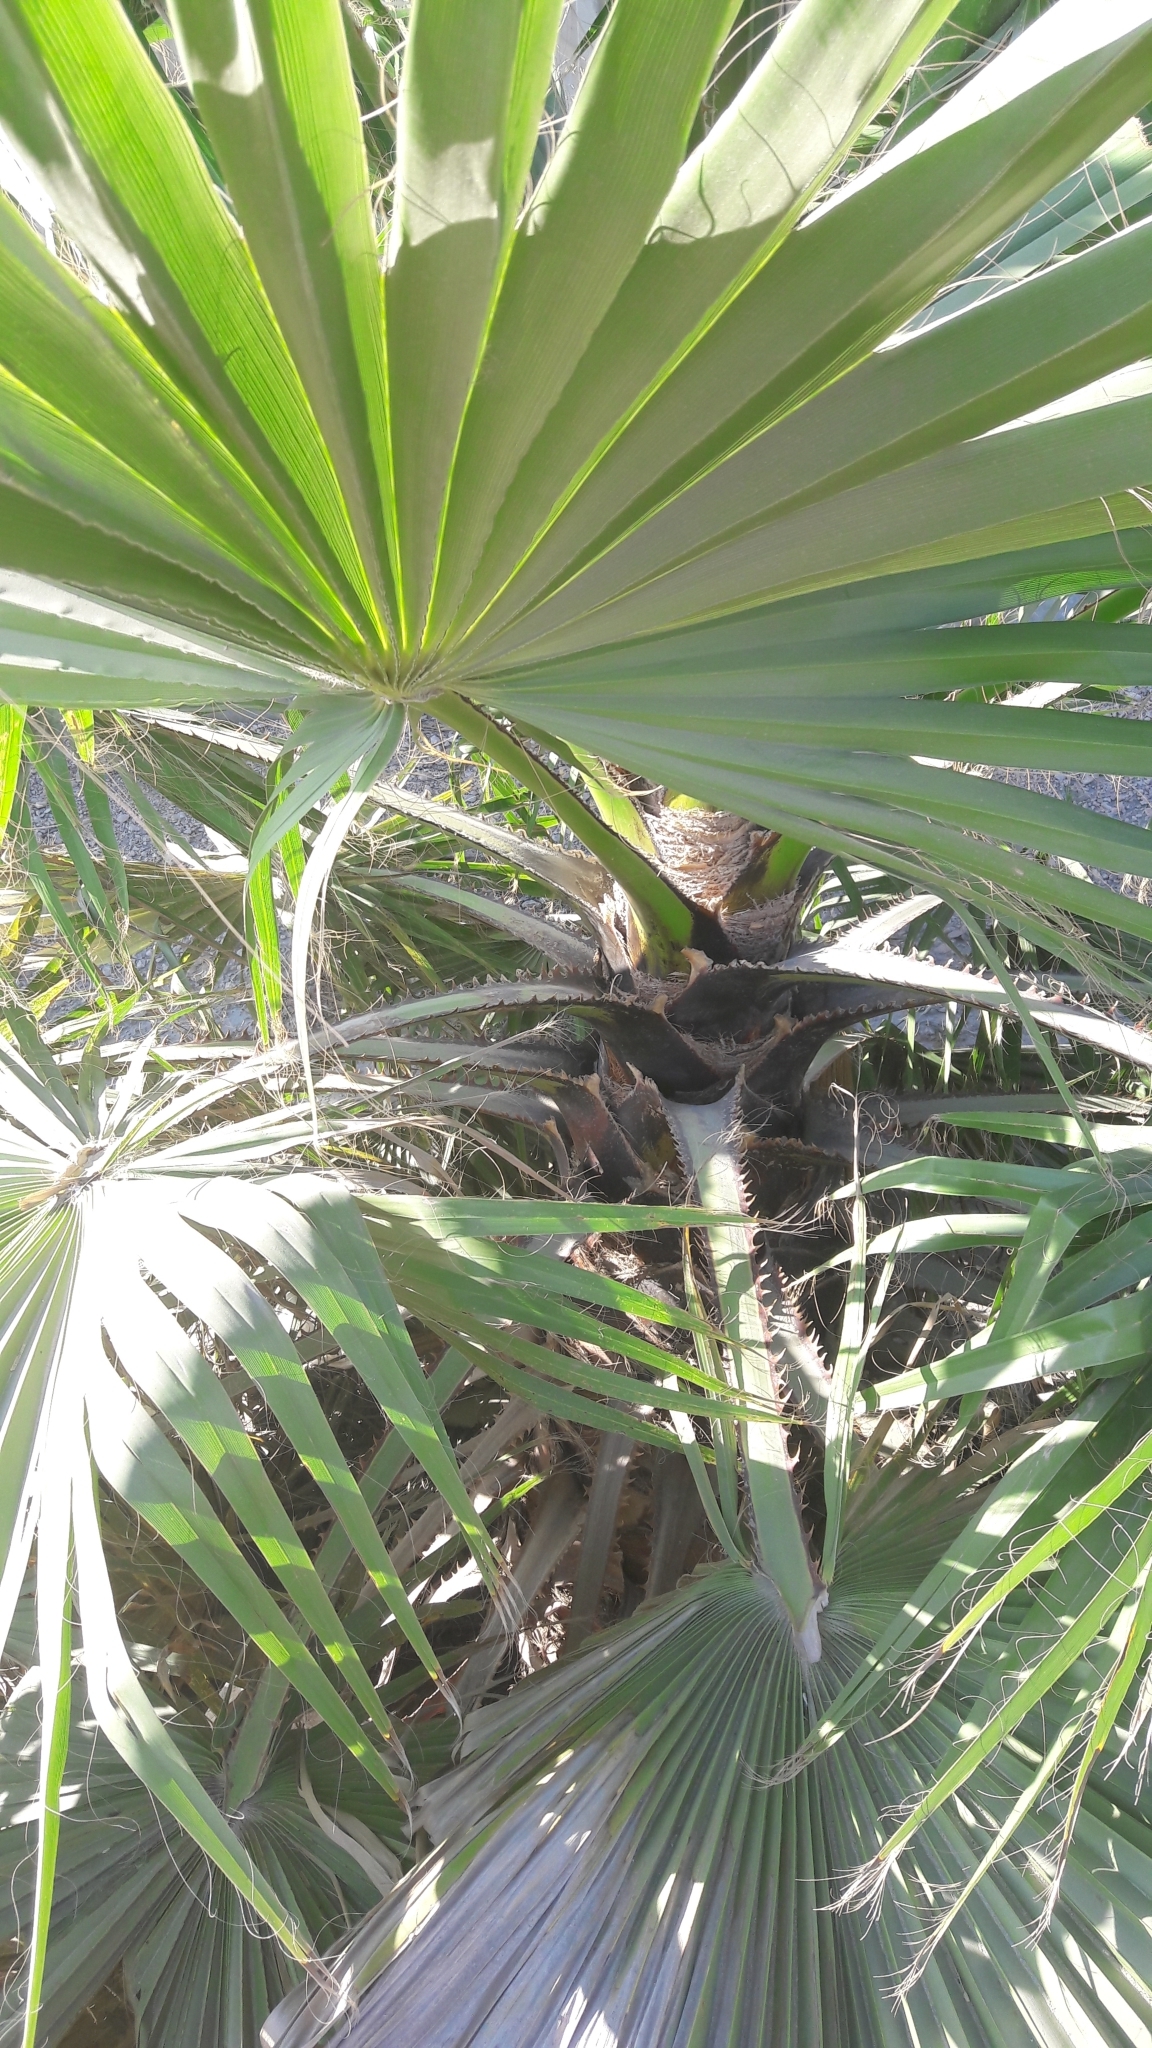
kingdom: Plantae
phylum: Tracheophyta
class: Liliopsida
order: Arecales
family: Arecaceae
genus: Washingtonia
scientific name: Washingtonia robusta
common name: Mexican fan palm
